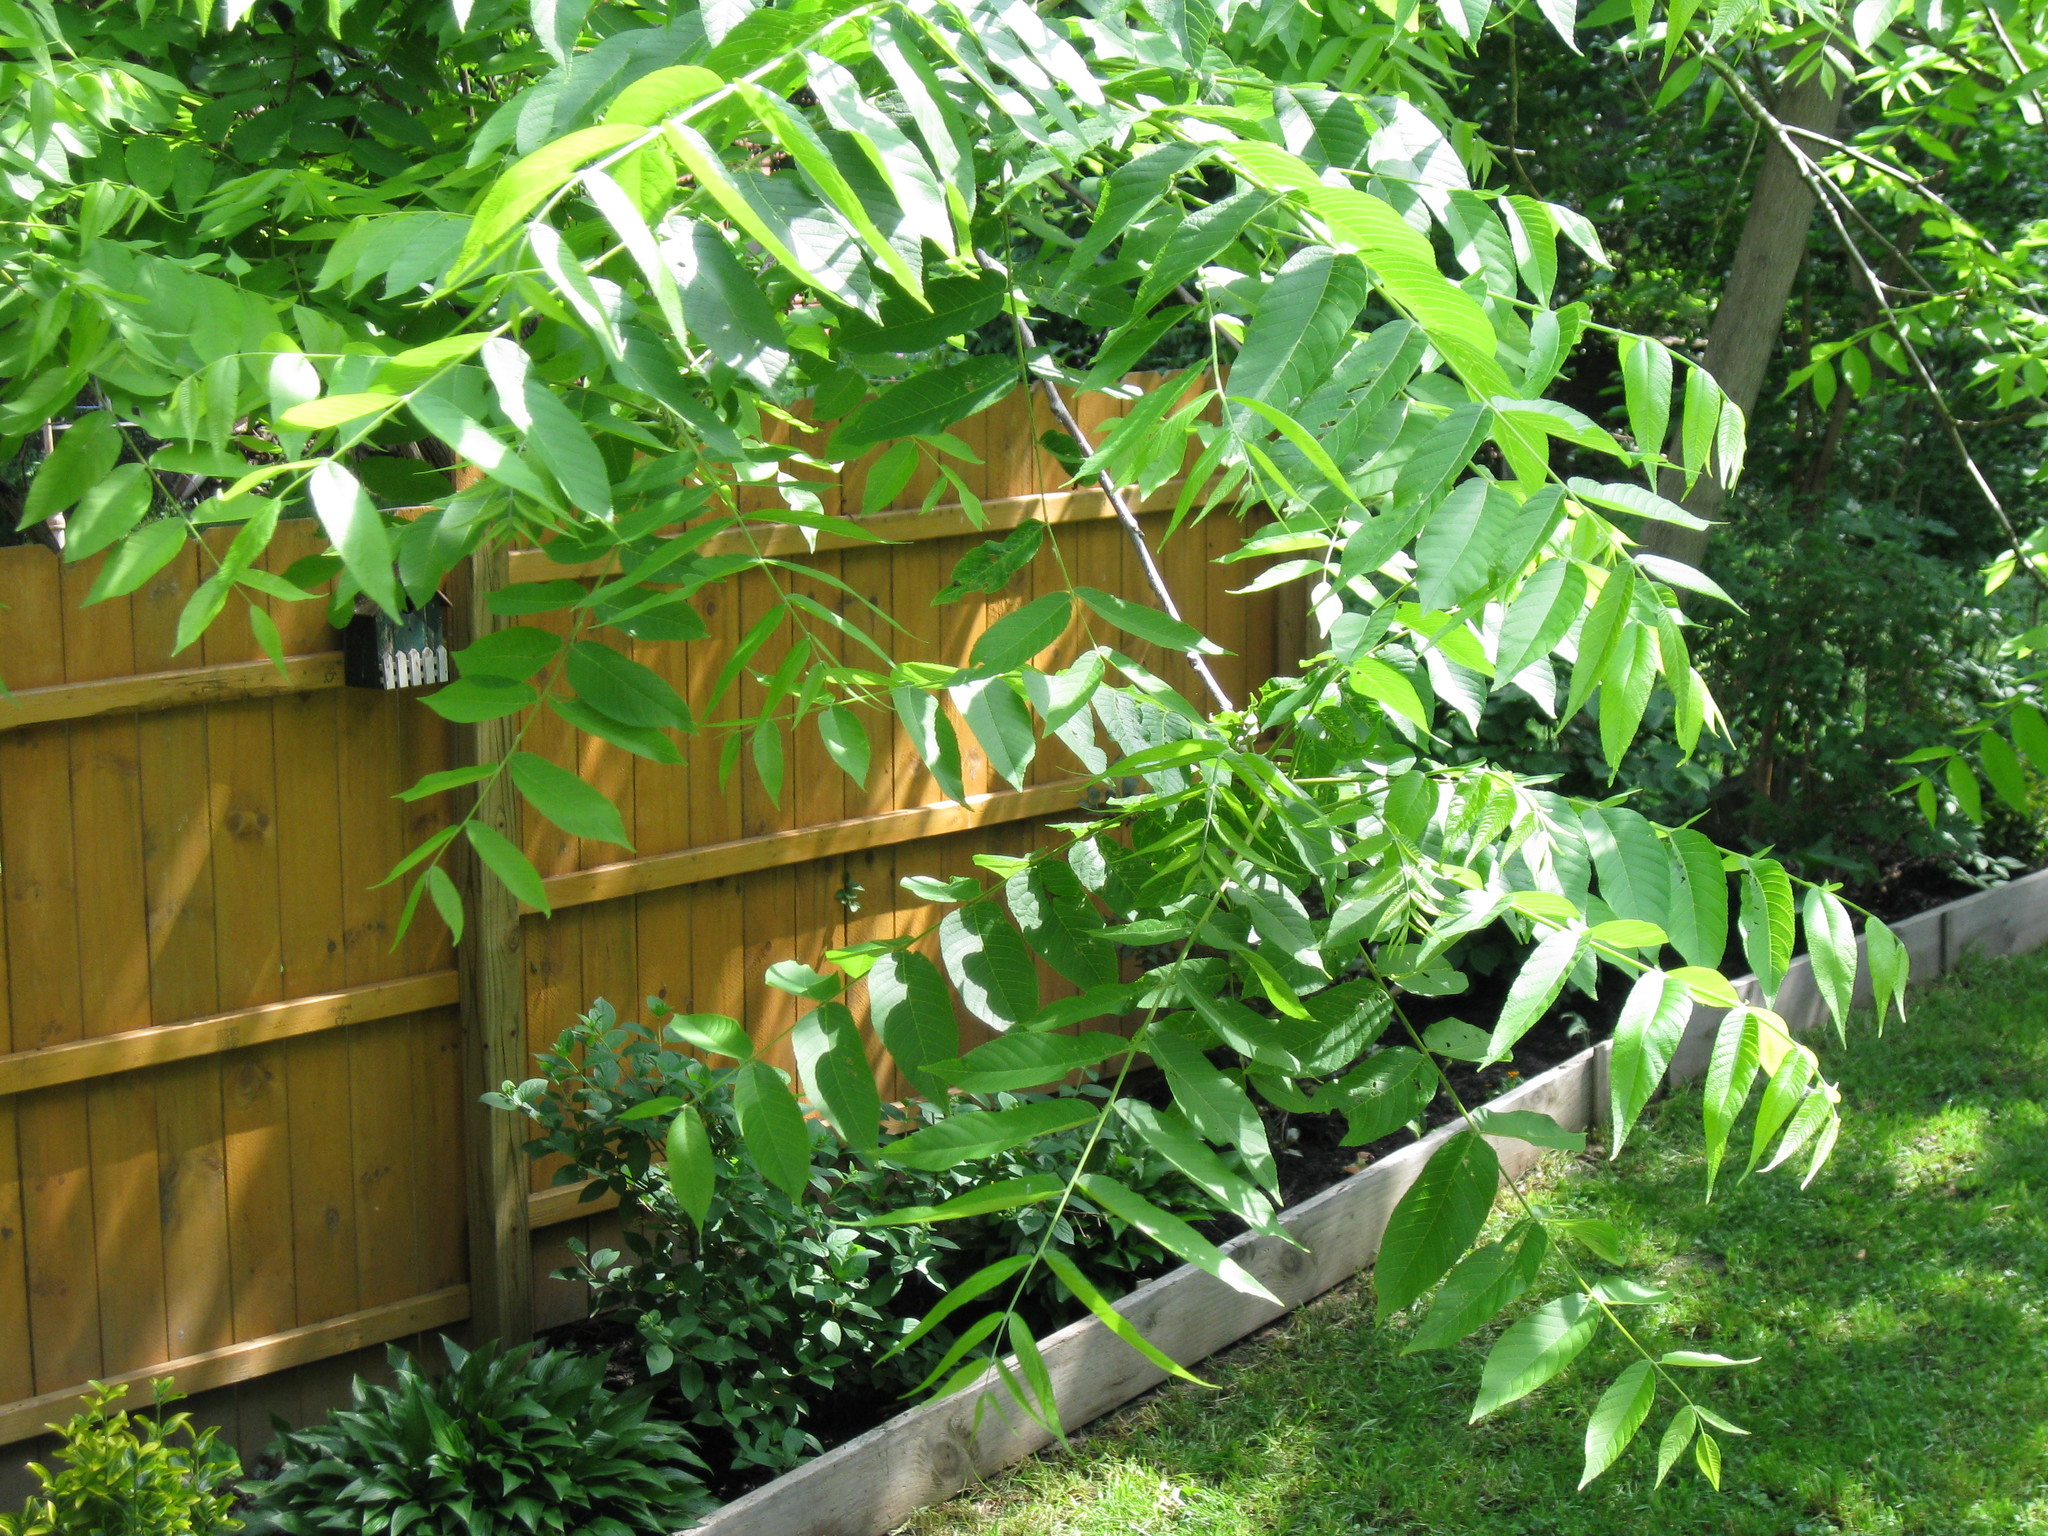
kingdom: Plantae
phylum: Tracheophyta
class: Magnoliopsida
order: Fagales
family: Juglandaceae
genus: Juglans
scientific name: Juglans nigra
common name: Black walnut
